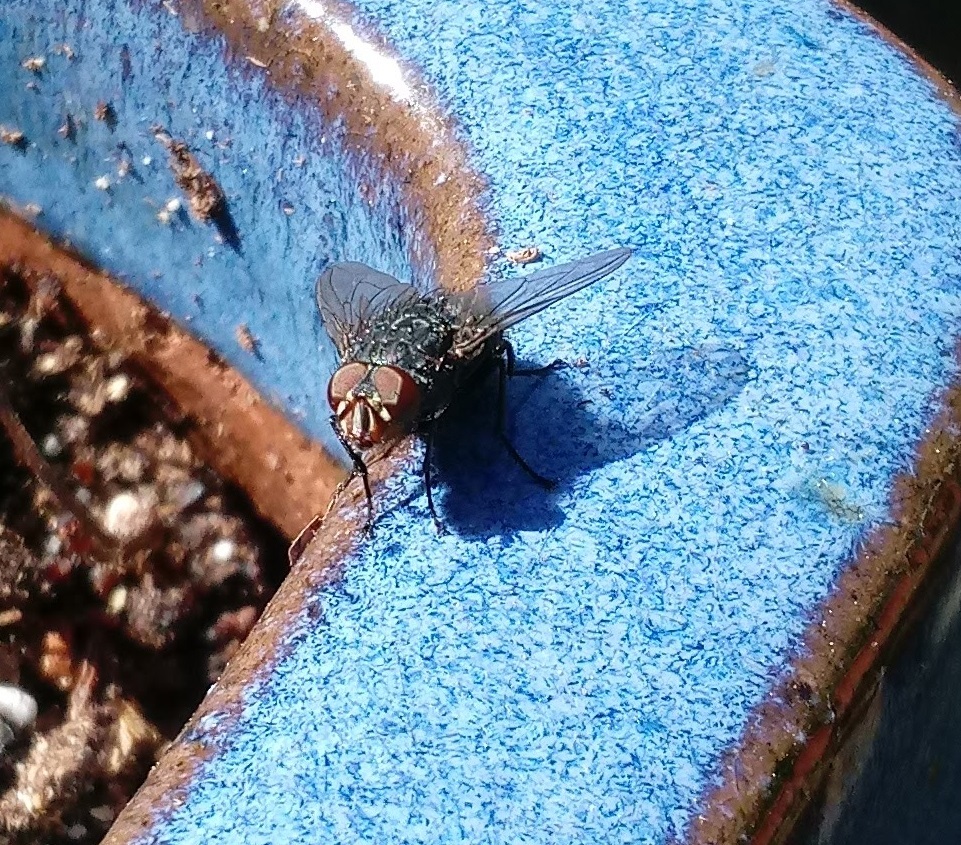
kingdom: Animalia
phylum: Arthropoda
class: Insecta
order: Diptera
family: Calliphoridae
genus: Calliphora
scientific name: Calliphora vicina
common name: Common blow flie
